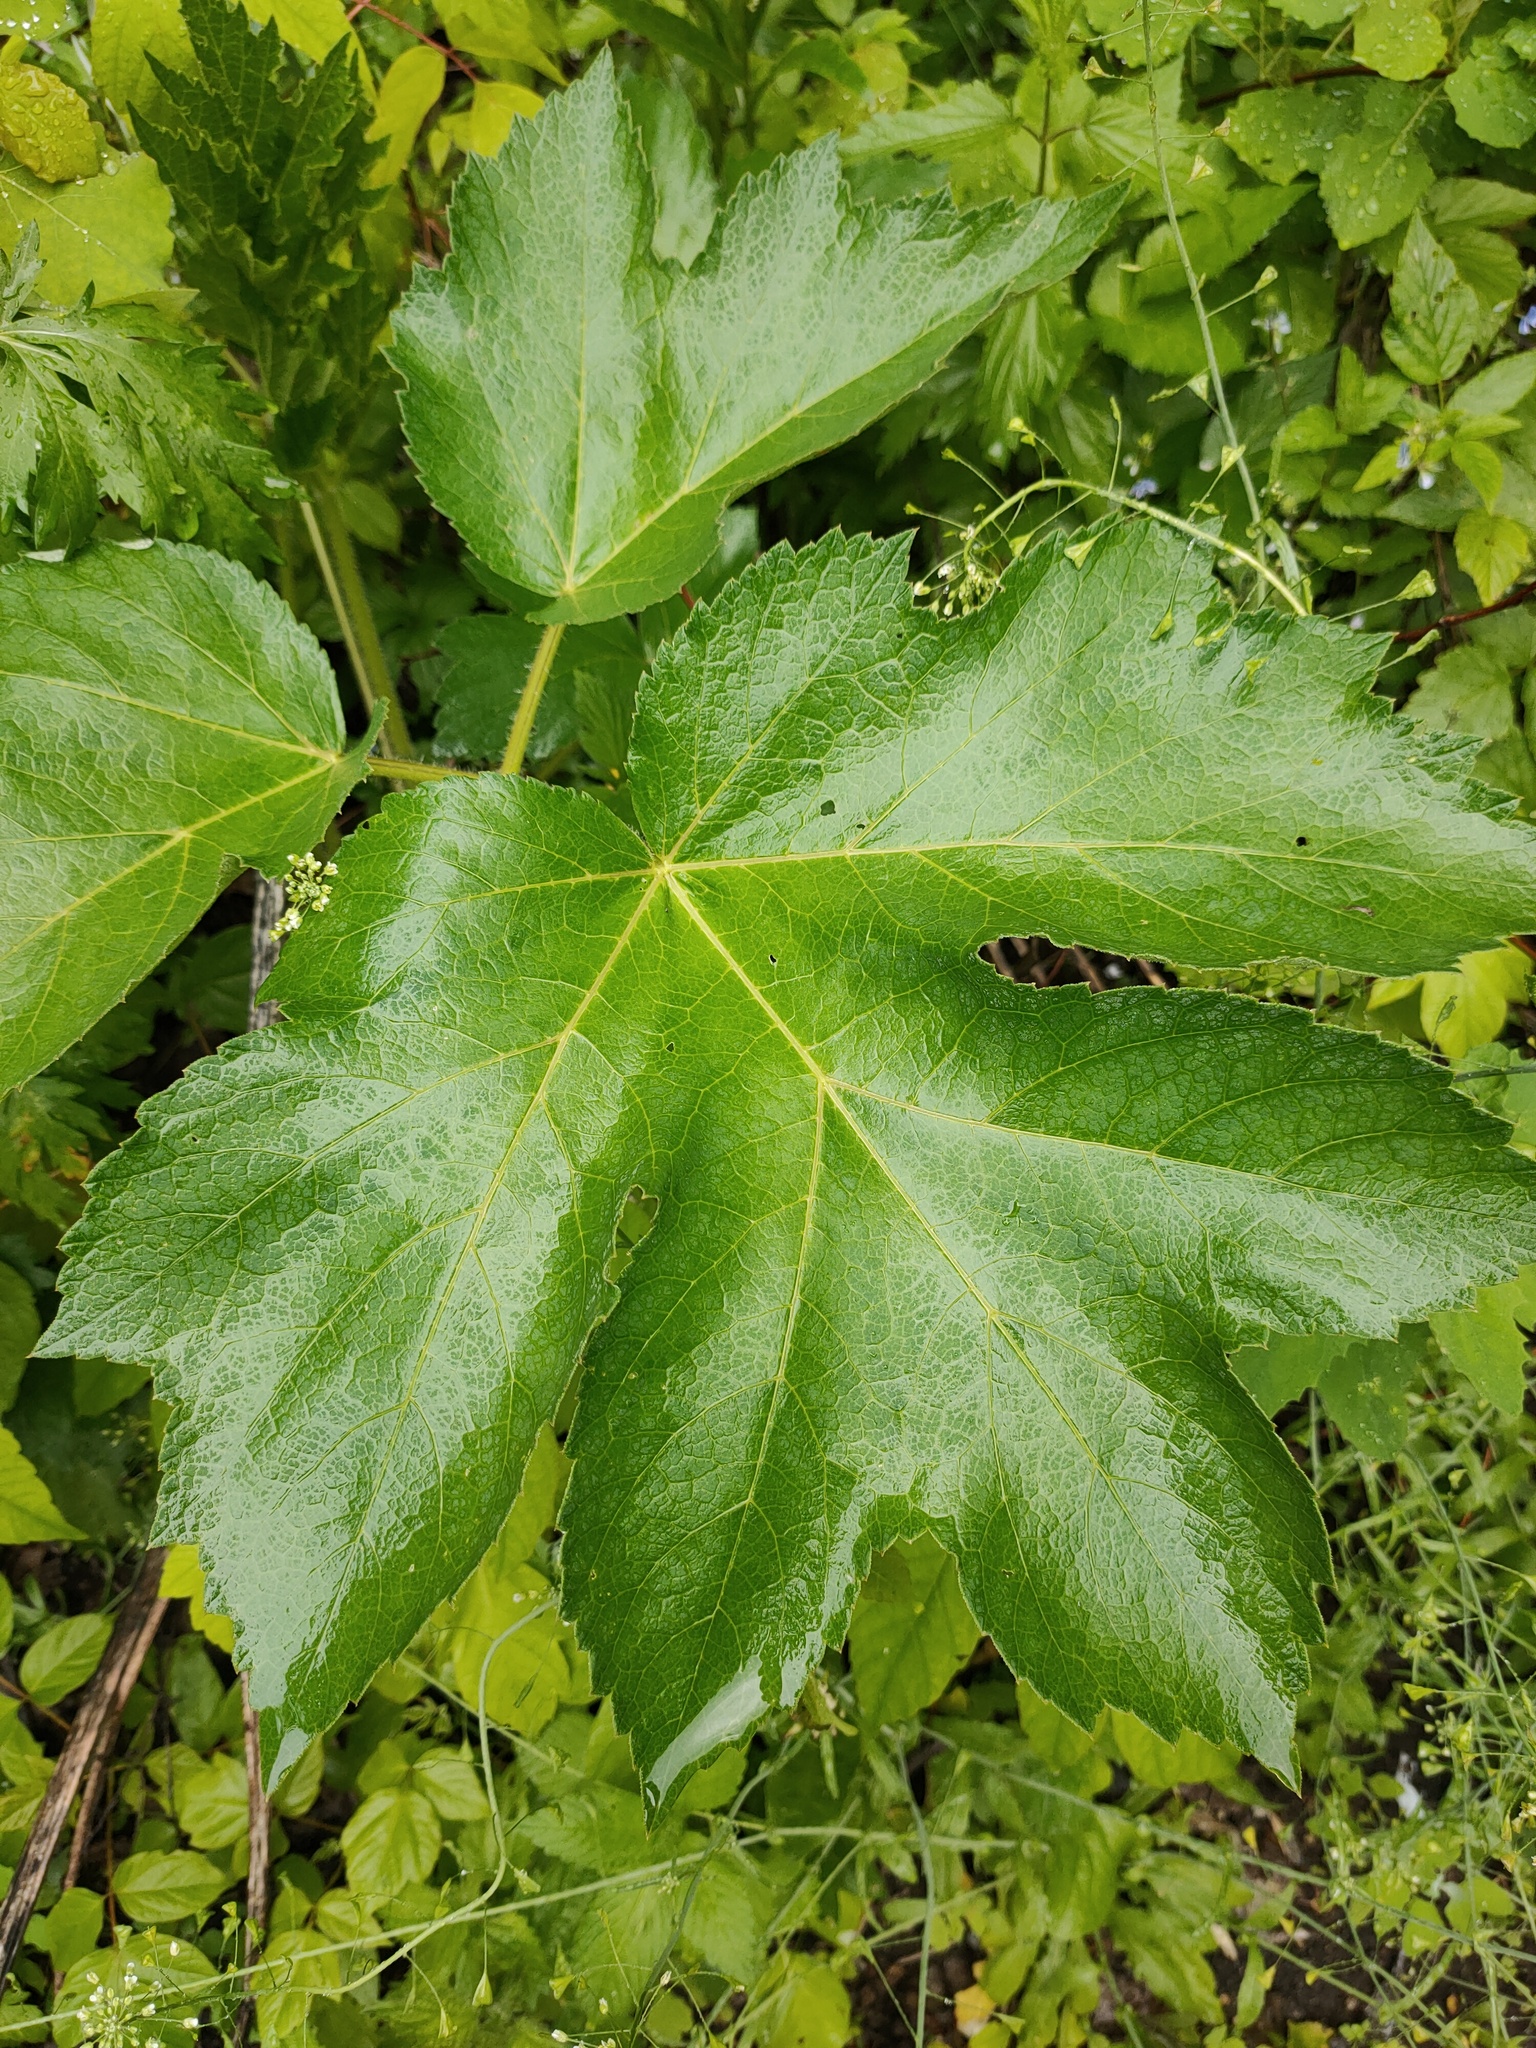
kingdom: Plantae
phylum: Tracheophyta
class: Magnoliopsida
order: Apiales
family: Apiaceae
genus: Heracleum
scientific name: Heracleum sphondylium
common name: Hogweed
